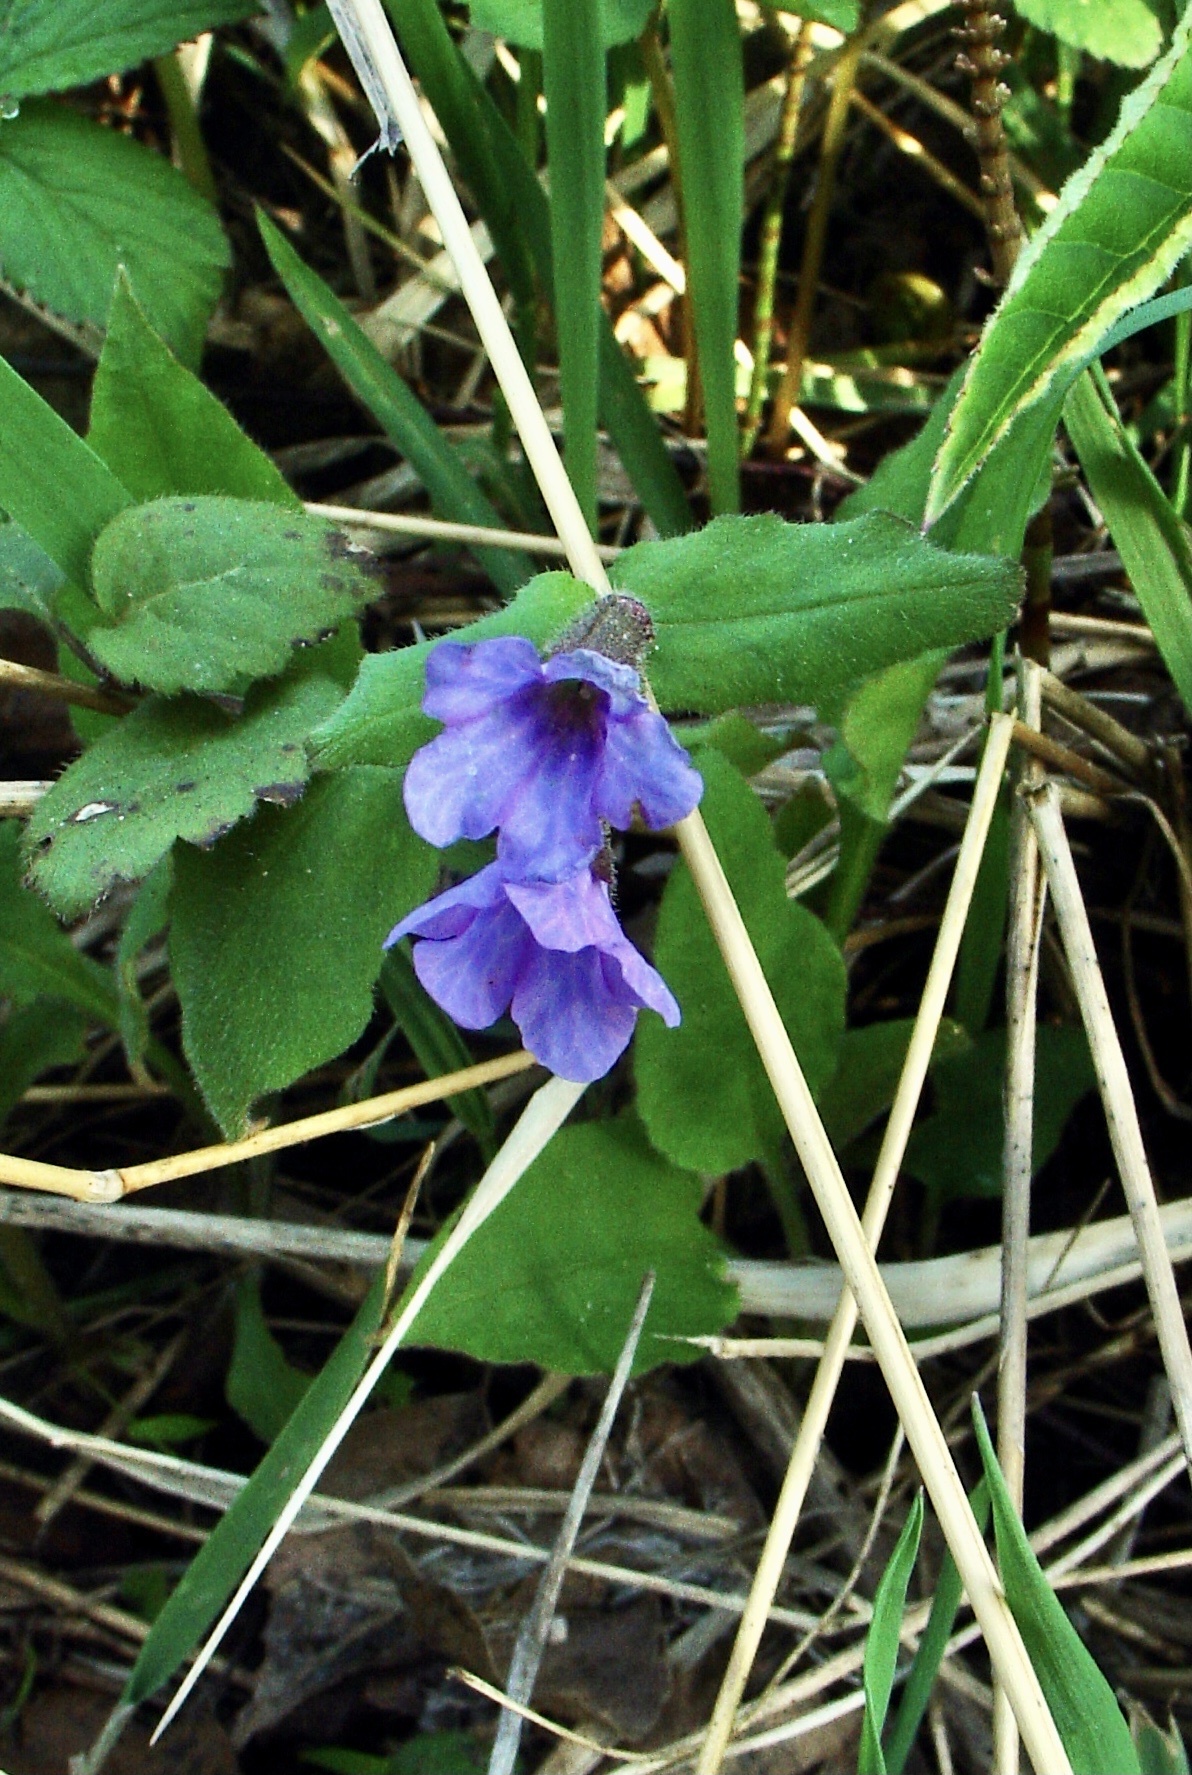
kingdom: Plantae
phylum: Tracheophyta
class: Magnoliopsida
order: Boraginales
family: Boraginaceae
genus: Pulmonaria
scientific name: Pulmonaria obscura
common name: Suffolk lungwort
